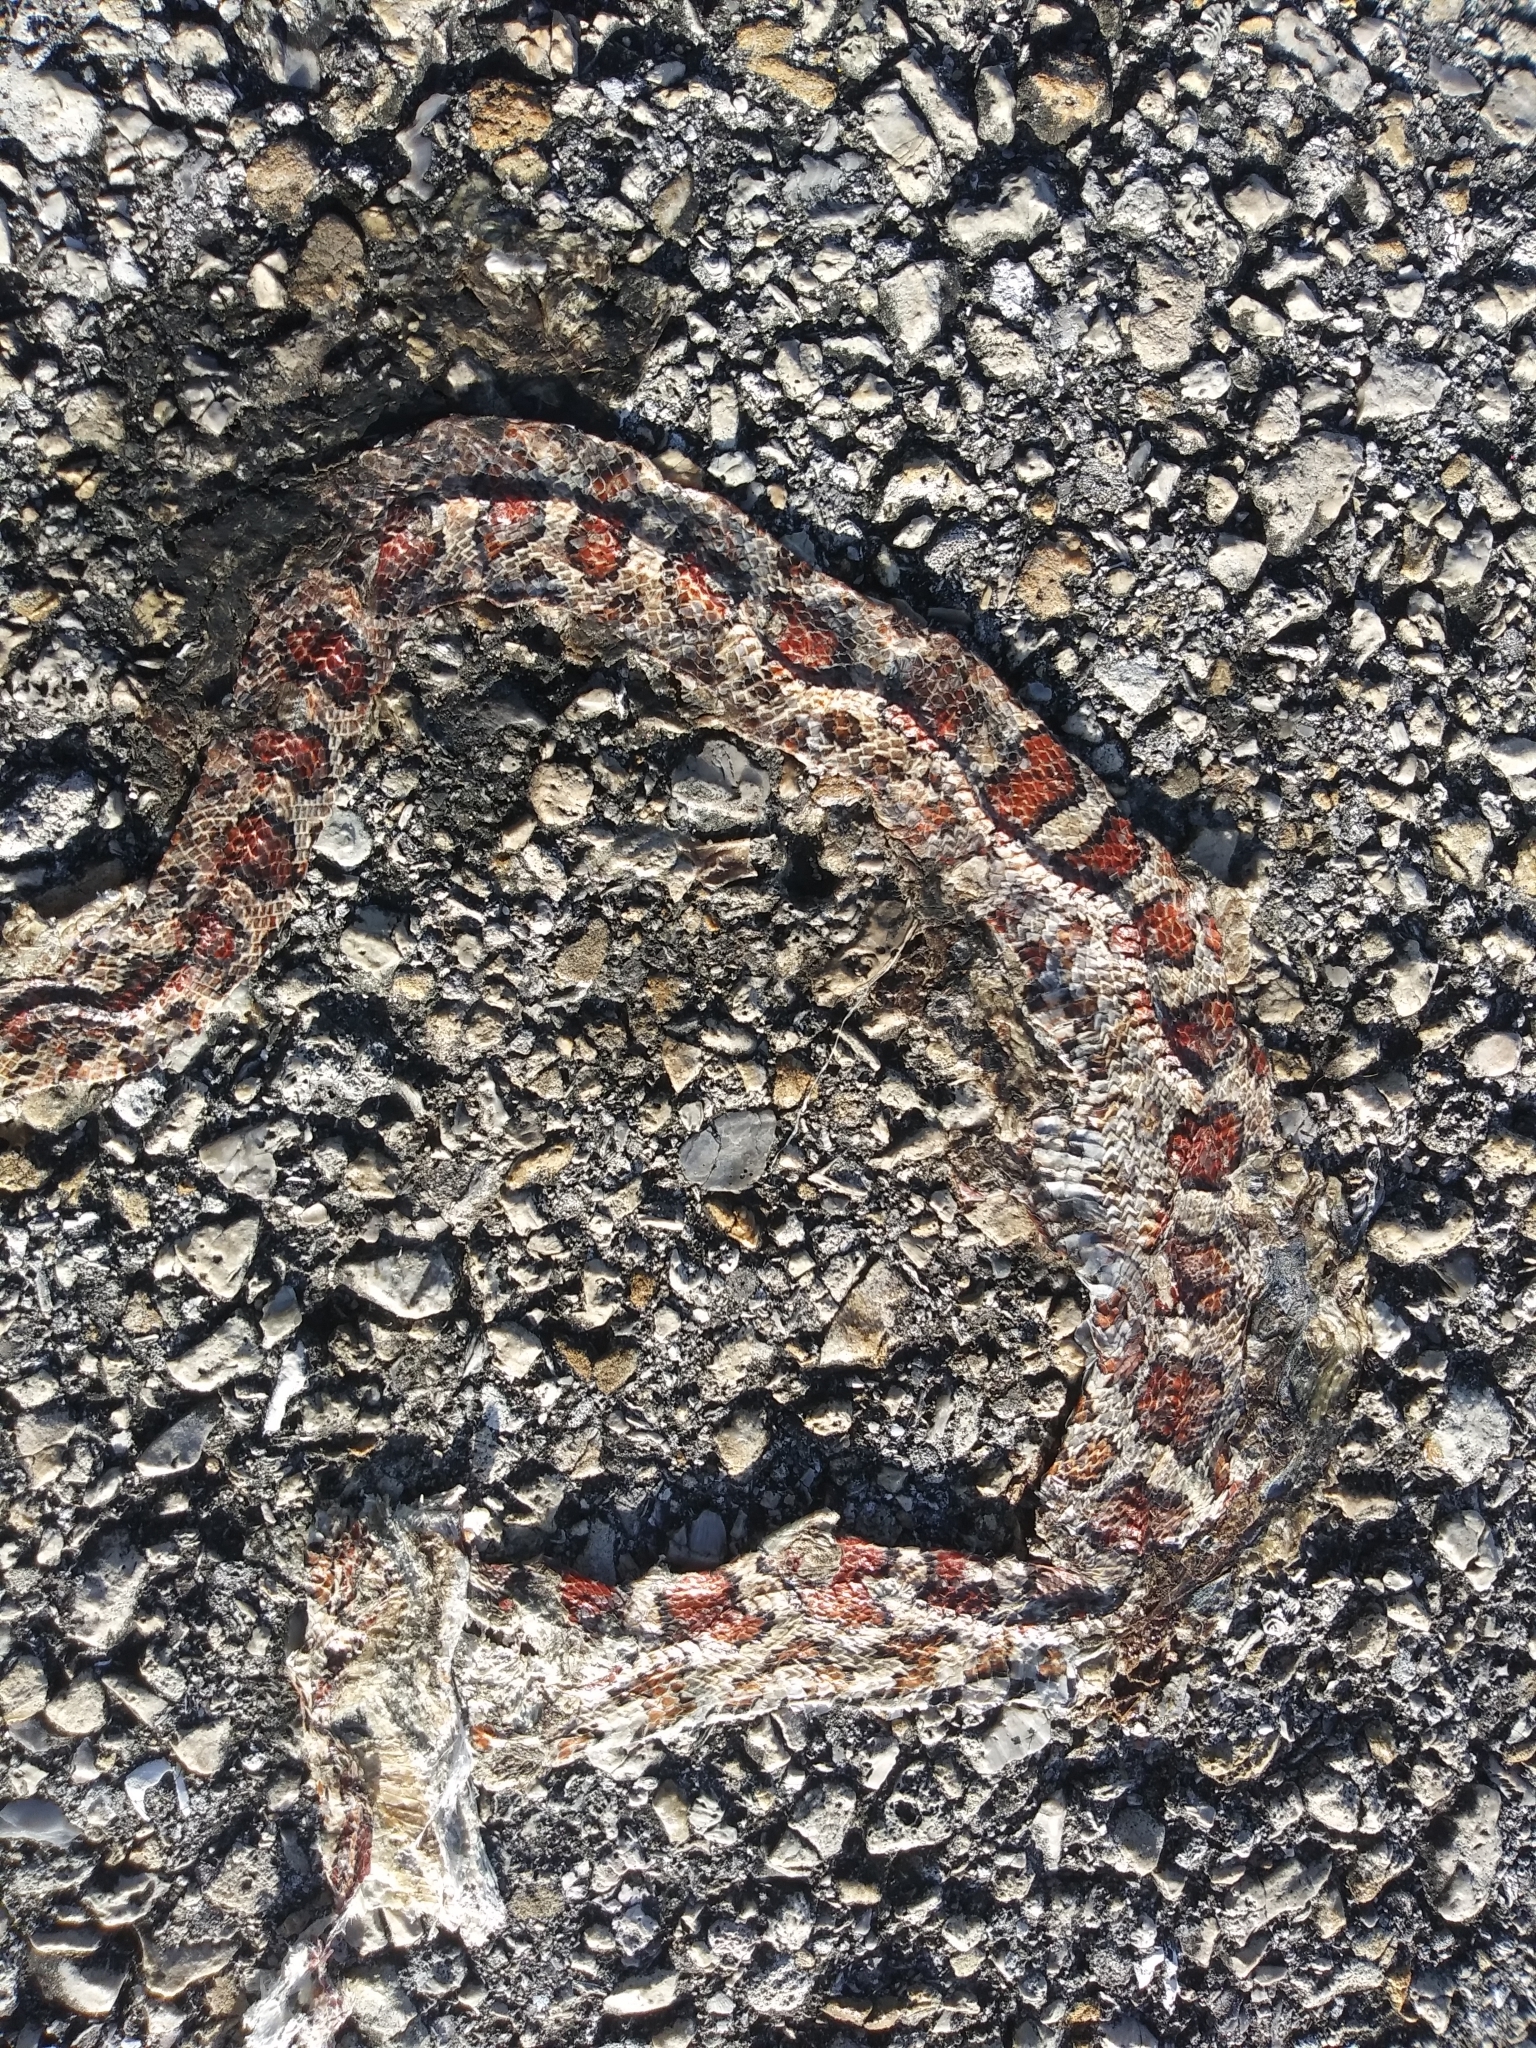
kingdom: Animalia
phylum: Chordata
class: Squamata
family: Colubridae
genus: Pantherophis
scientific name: Pantherophis guttatus
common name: Red cornsnake
